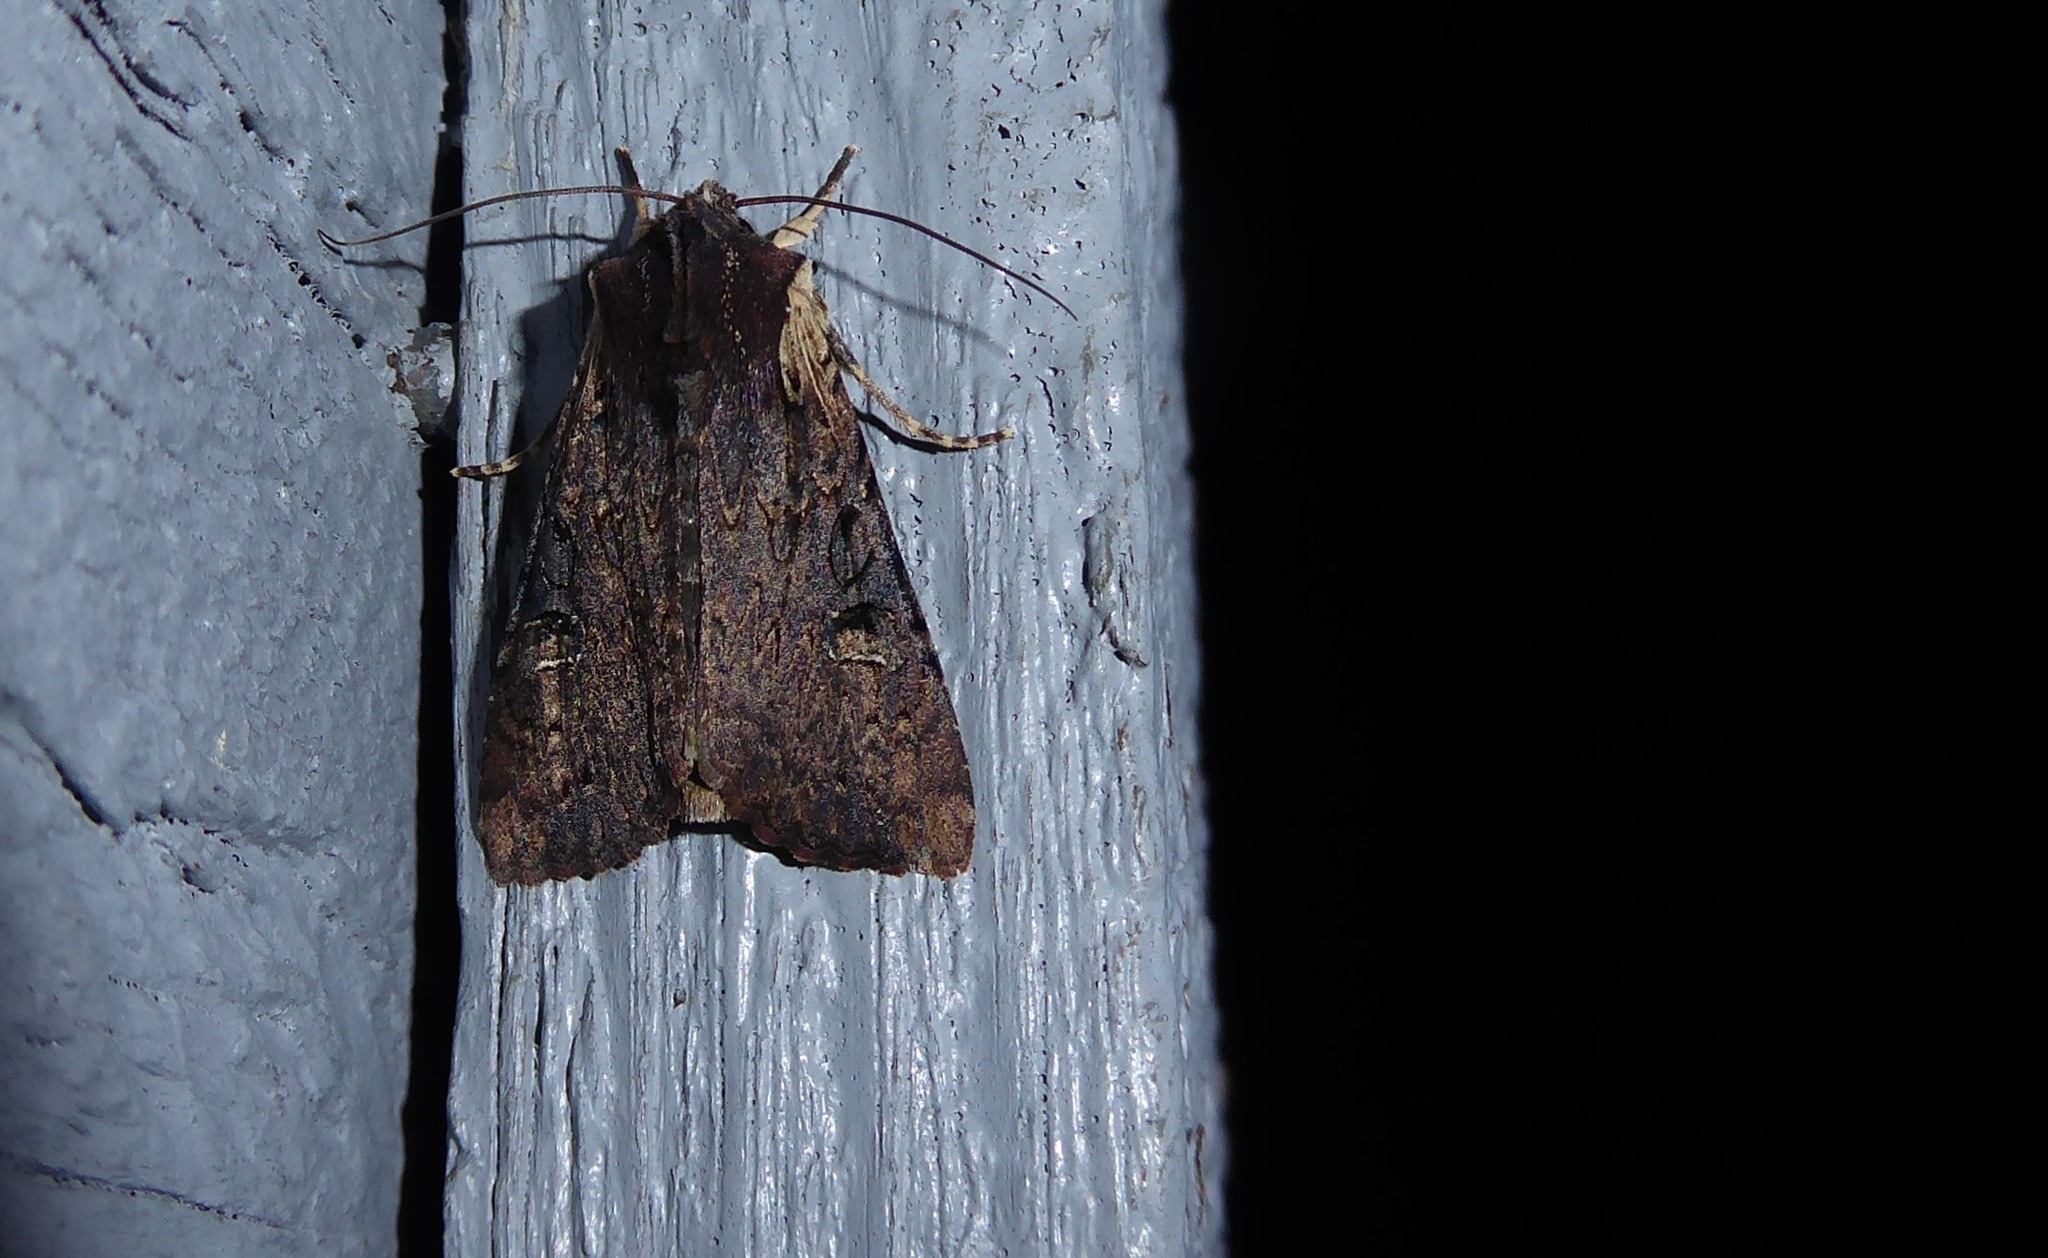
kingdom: Animalia
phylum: Arthropoda
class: Insecta
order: Lepidoptera
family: Noctuidae
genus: Ichneutica
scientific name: Ichneutica omoplaca
